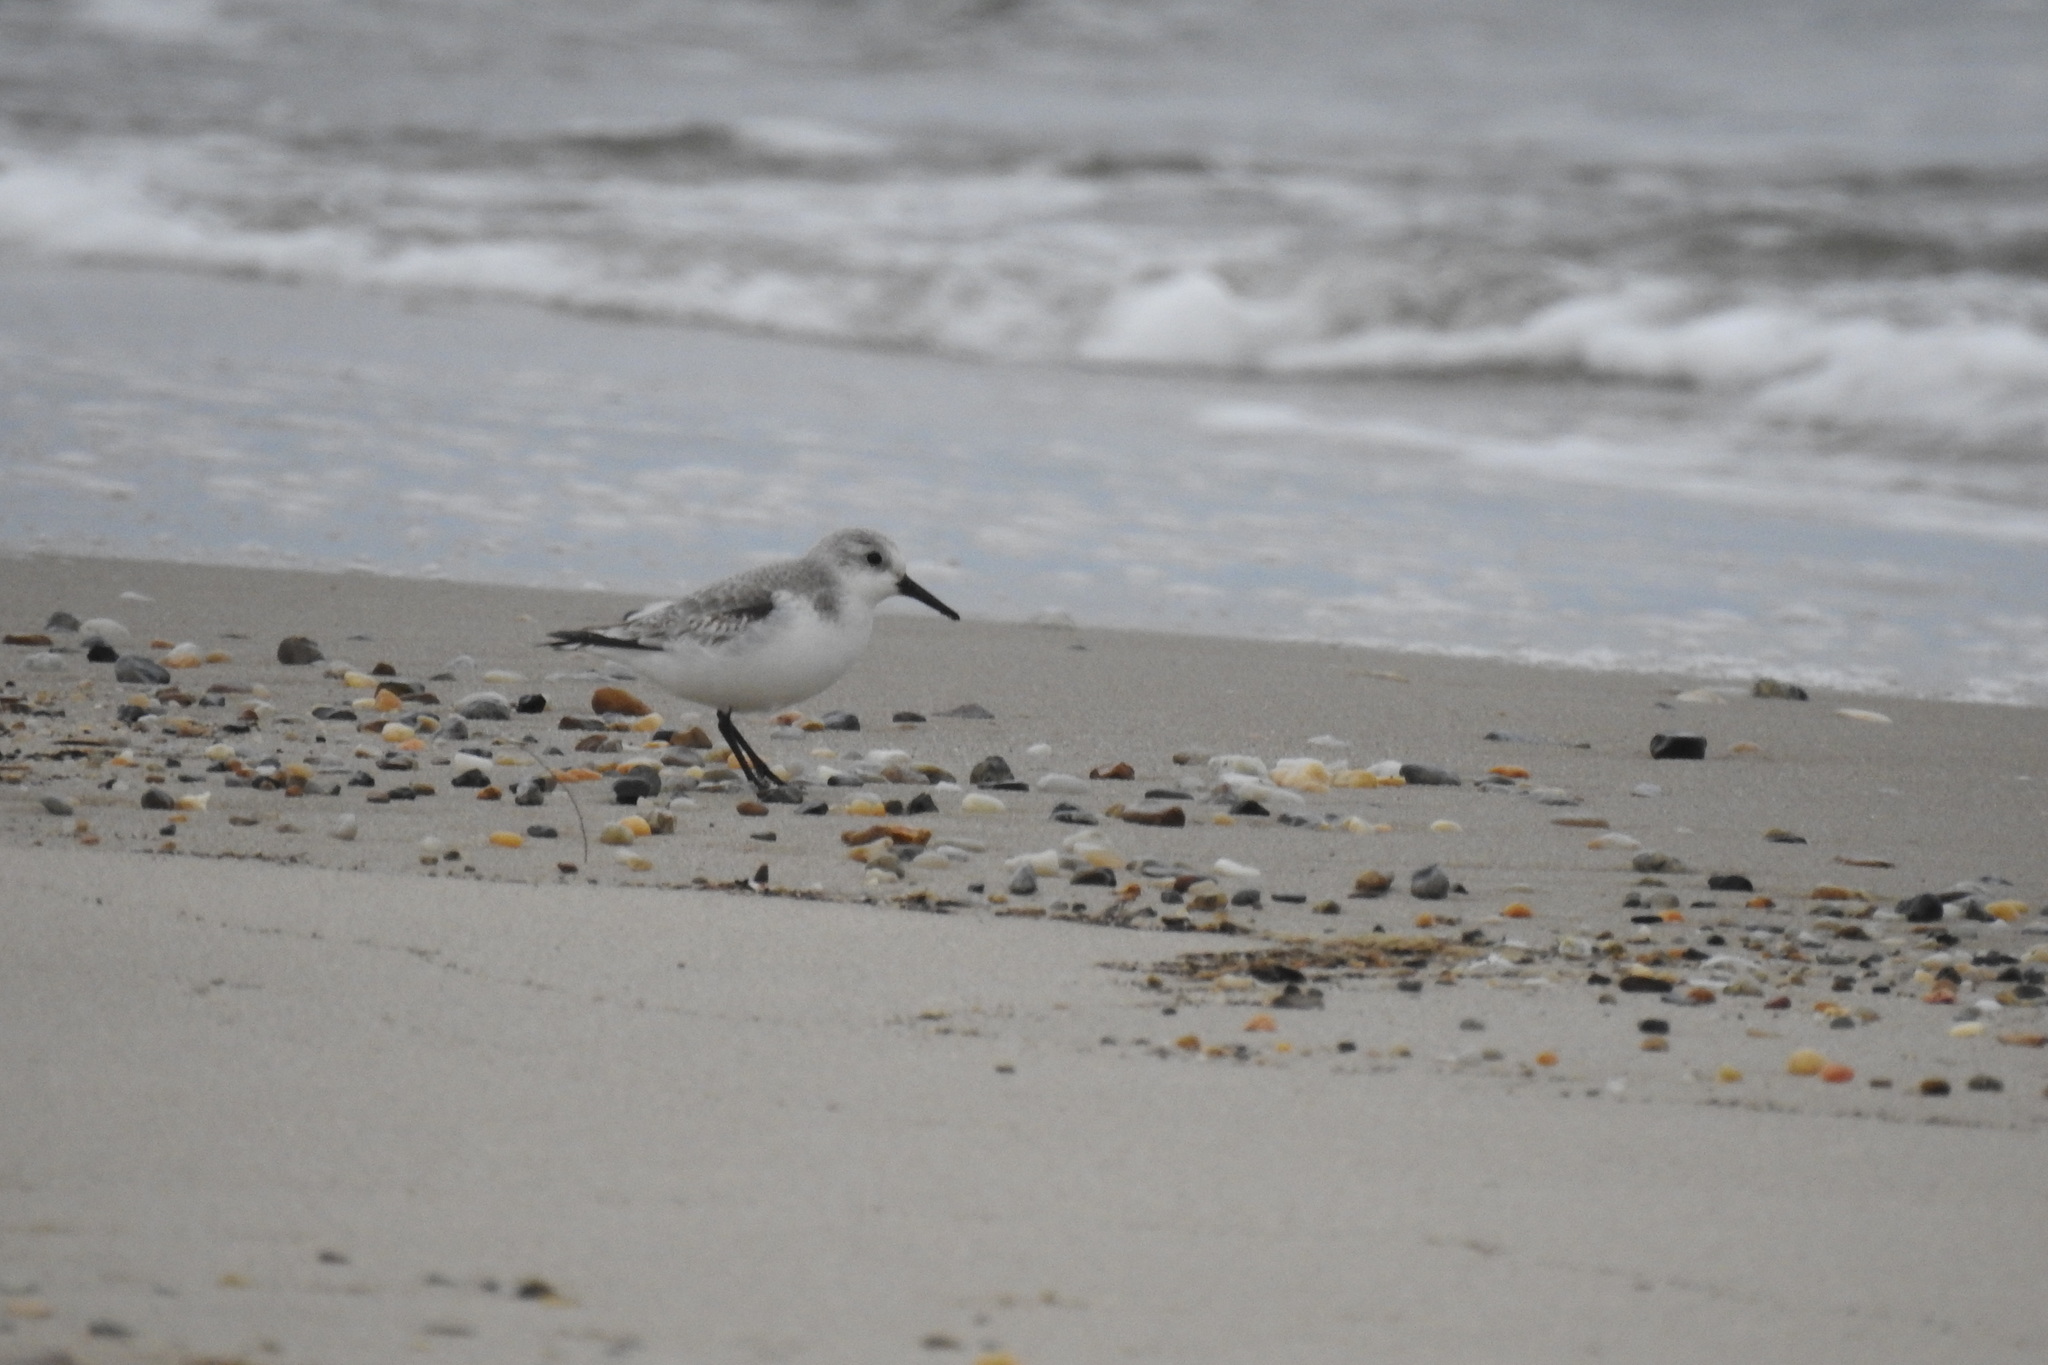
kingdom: Animalia
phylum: Chordata
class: Aves
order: Charadriiformes
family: Scolopacidae
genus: Calidris
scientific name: Calidris alba
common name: Sanderling
